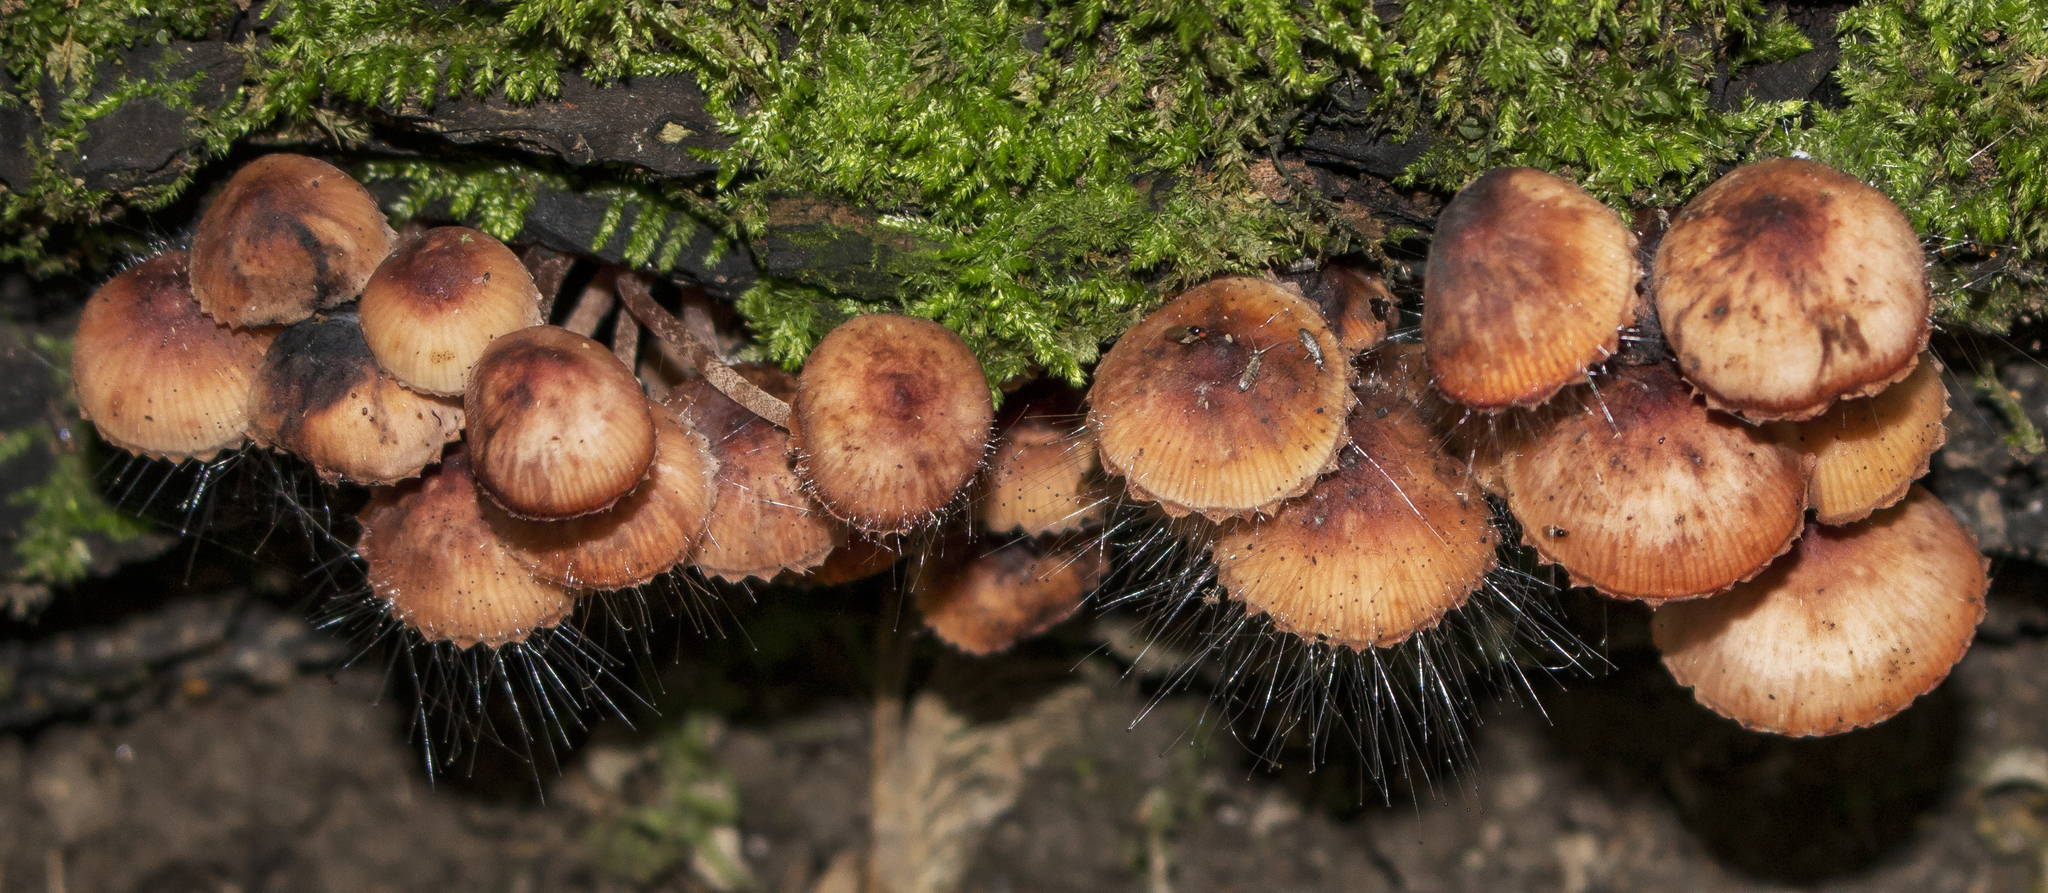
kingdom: Fungi
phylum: Mucoromycota
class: Mucoromycetes
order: Mucorales
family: Phycomycetaceae
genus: Spinellus
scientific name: Spinellus fusiger
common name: Bonnet mould
